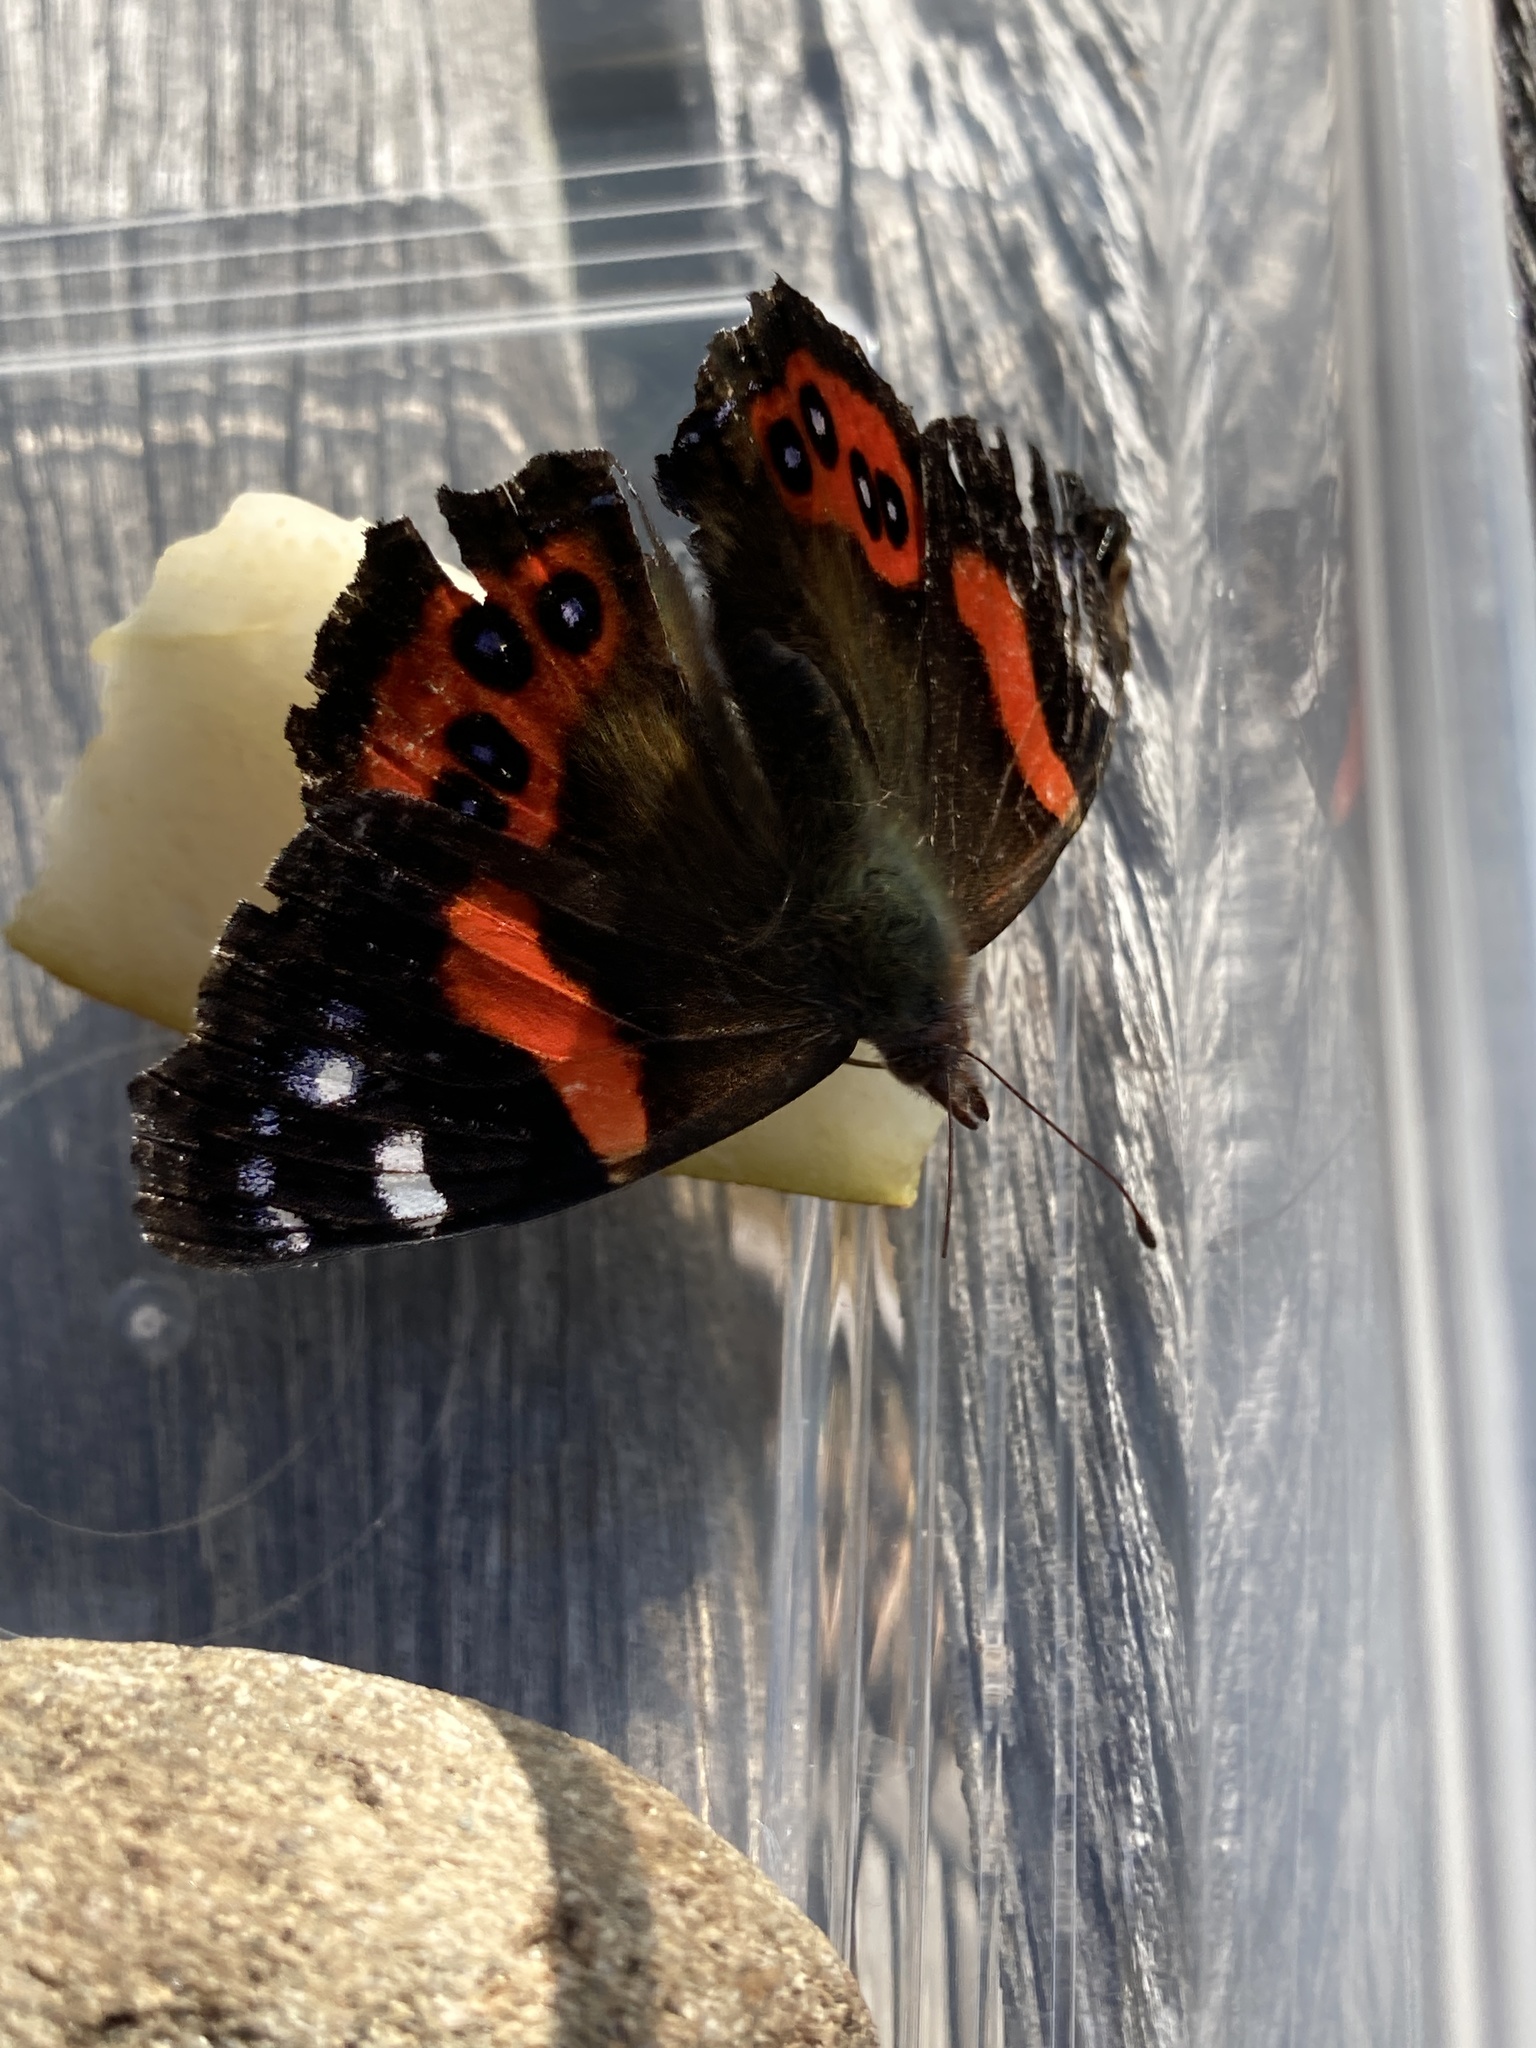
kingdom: Animalia
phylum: Arthropoda
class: Insecta
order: Lepidoptera
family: Nymphalidae
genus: Vanessa
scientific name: Vanessa gonerilla
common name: New zealand red admiral
